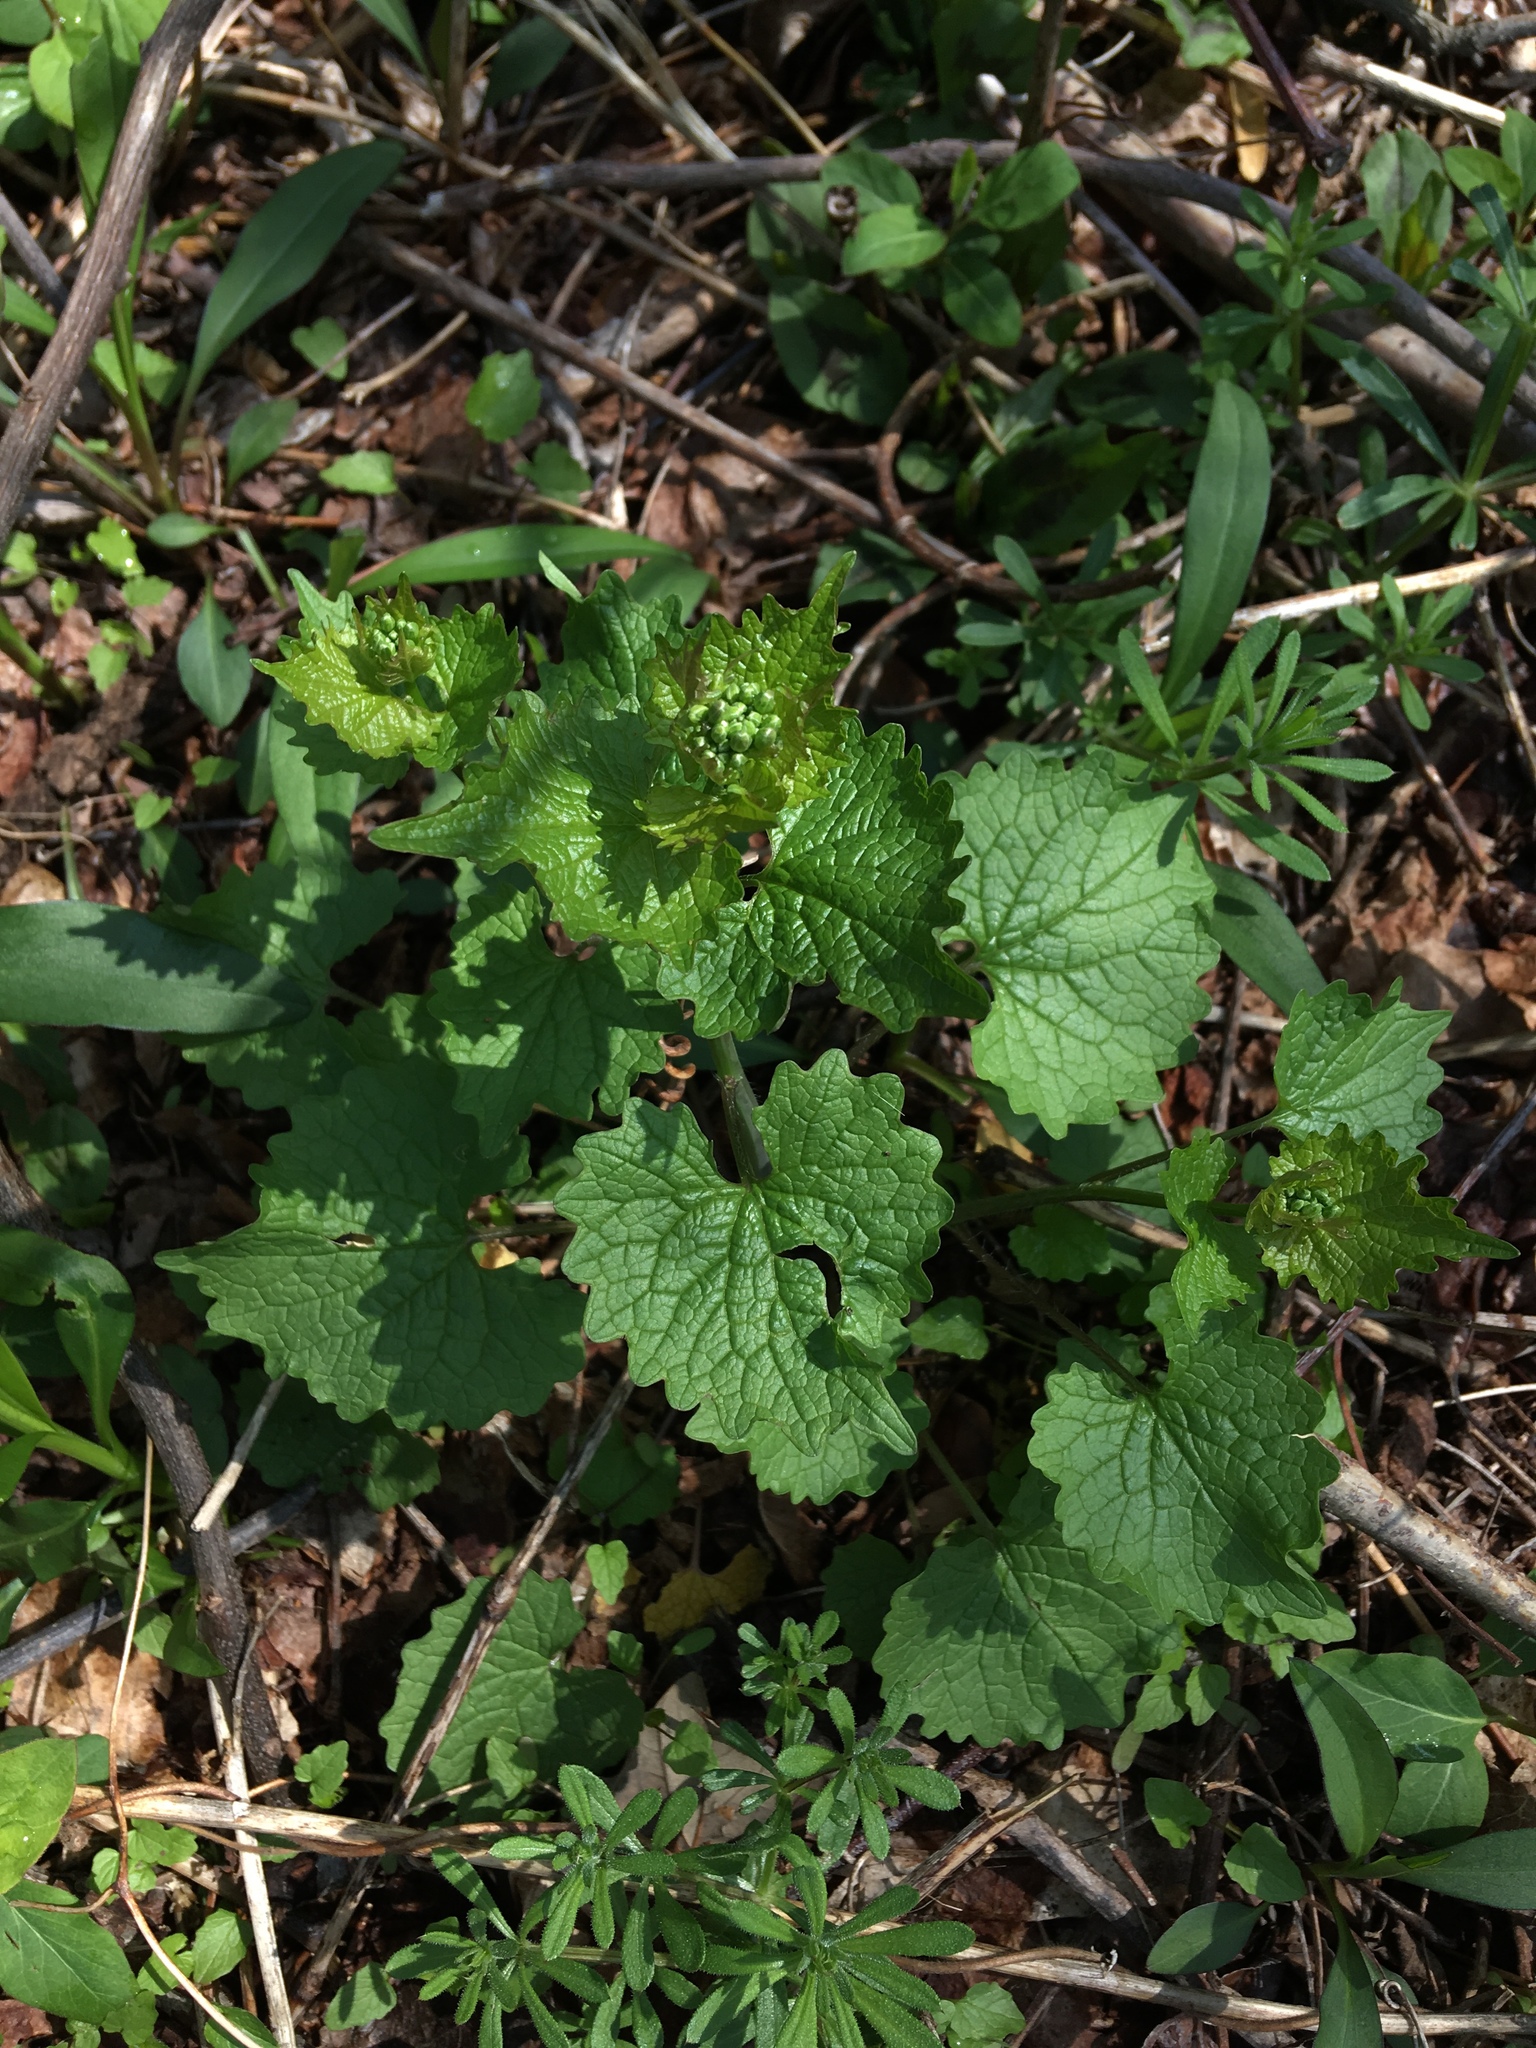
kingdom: Plantae
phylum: Tracheophyta
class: Magnoliopsida
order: Brassicales
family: Brassicaceae
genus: Alliaria
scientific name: Alliaria petiolata
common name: Garlic mustard
